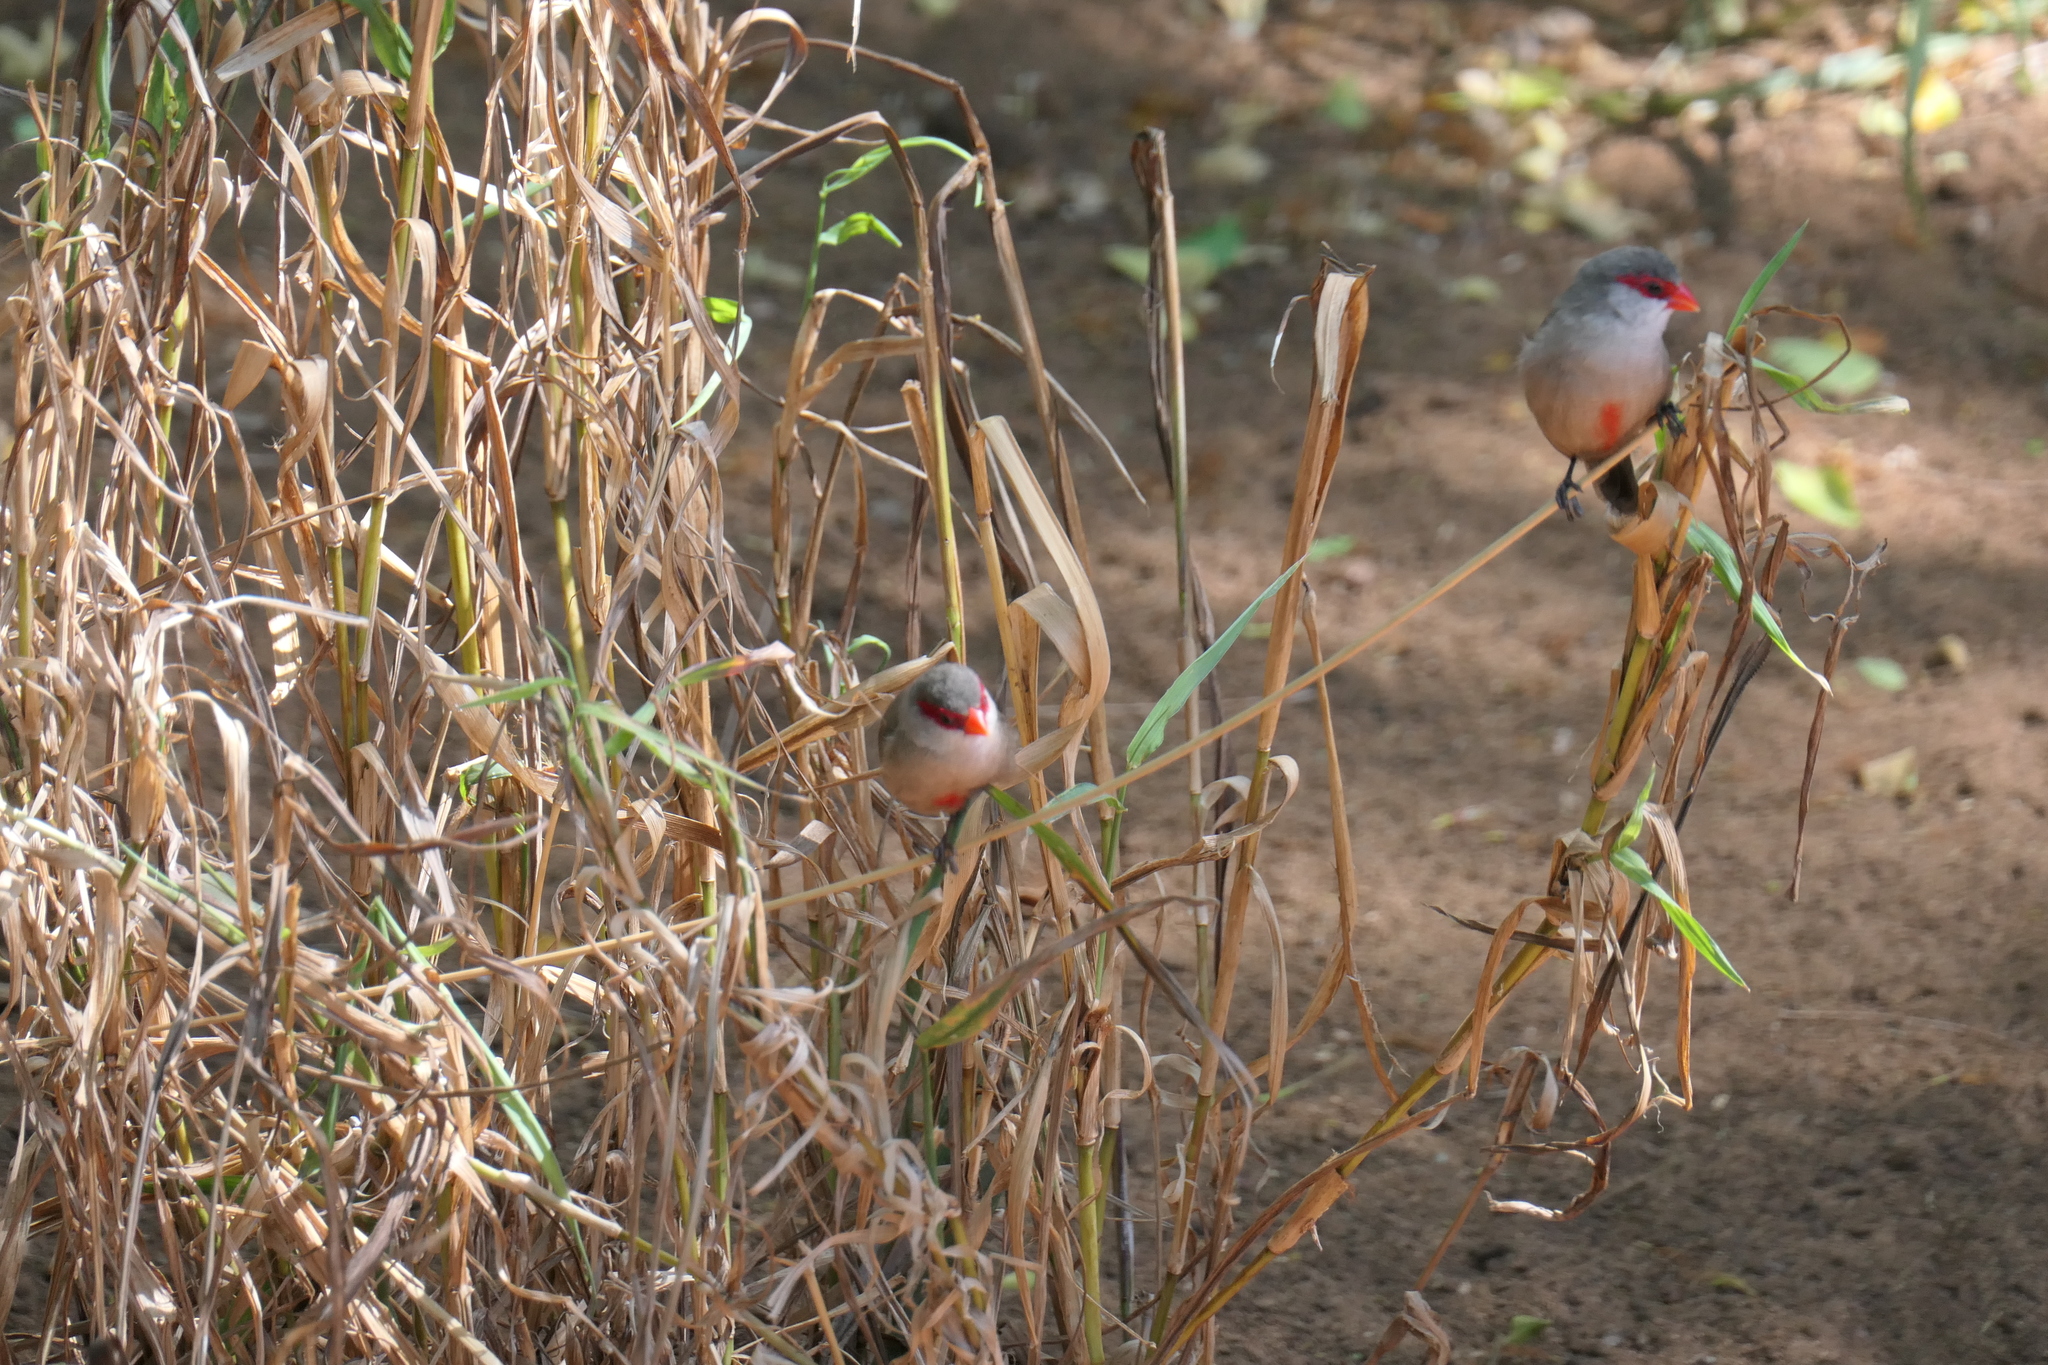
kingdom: Animalia
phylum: Chordata
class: Aves
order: Passeriformes
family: Estrildidae
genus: Estrilda
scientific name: Estrilda astrild
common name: Common waxbill
